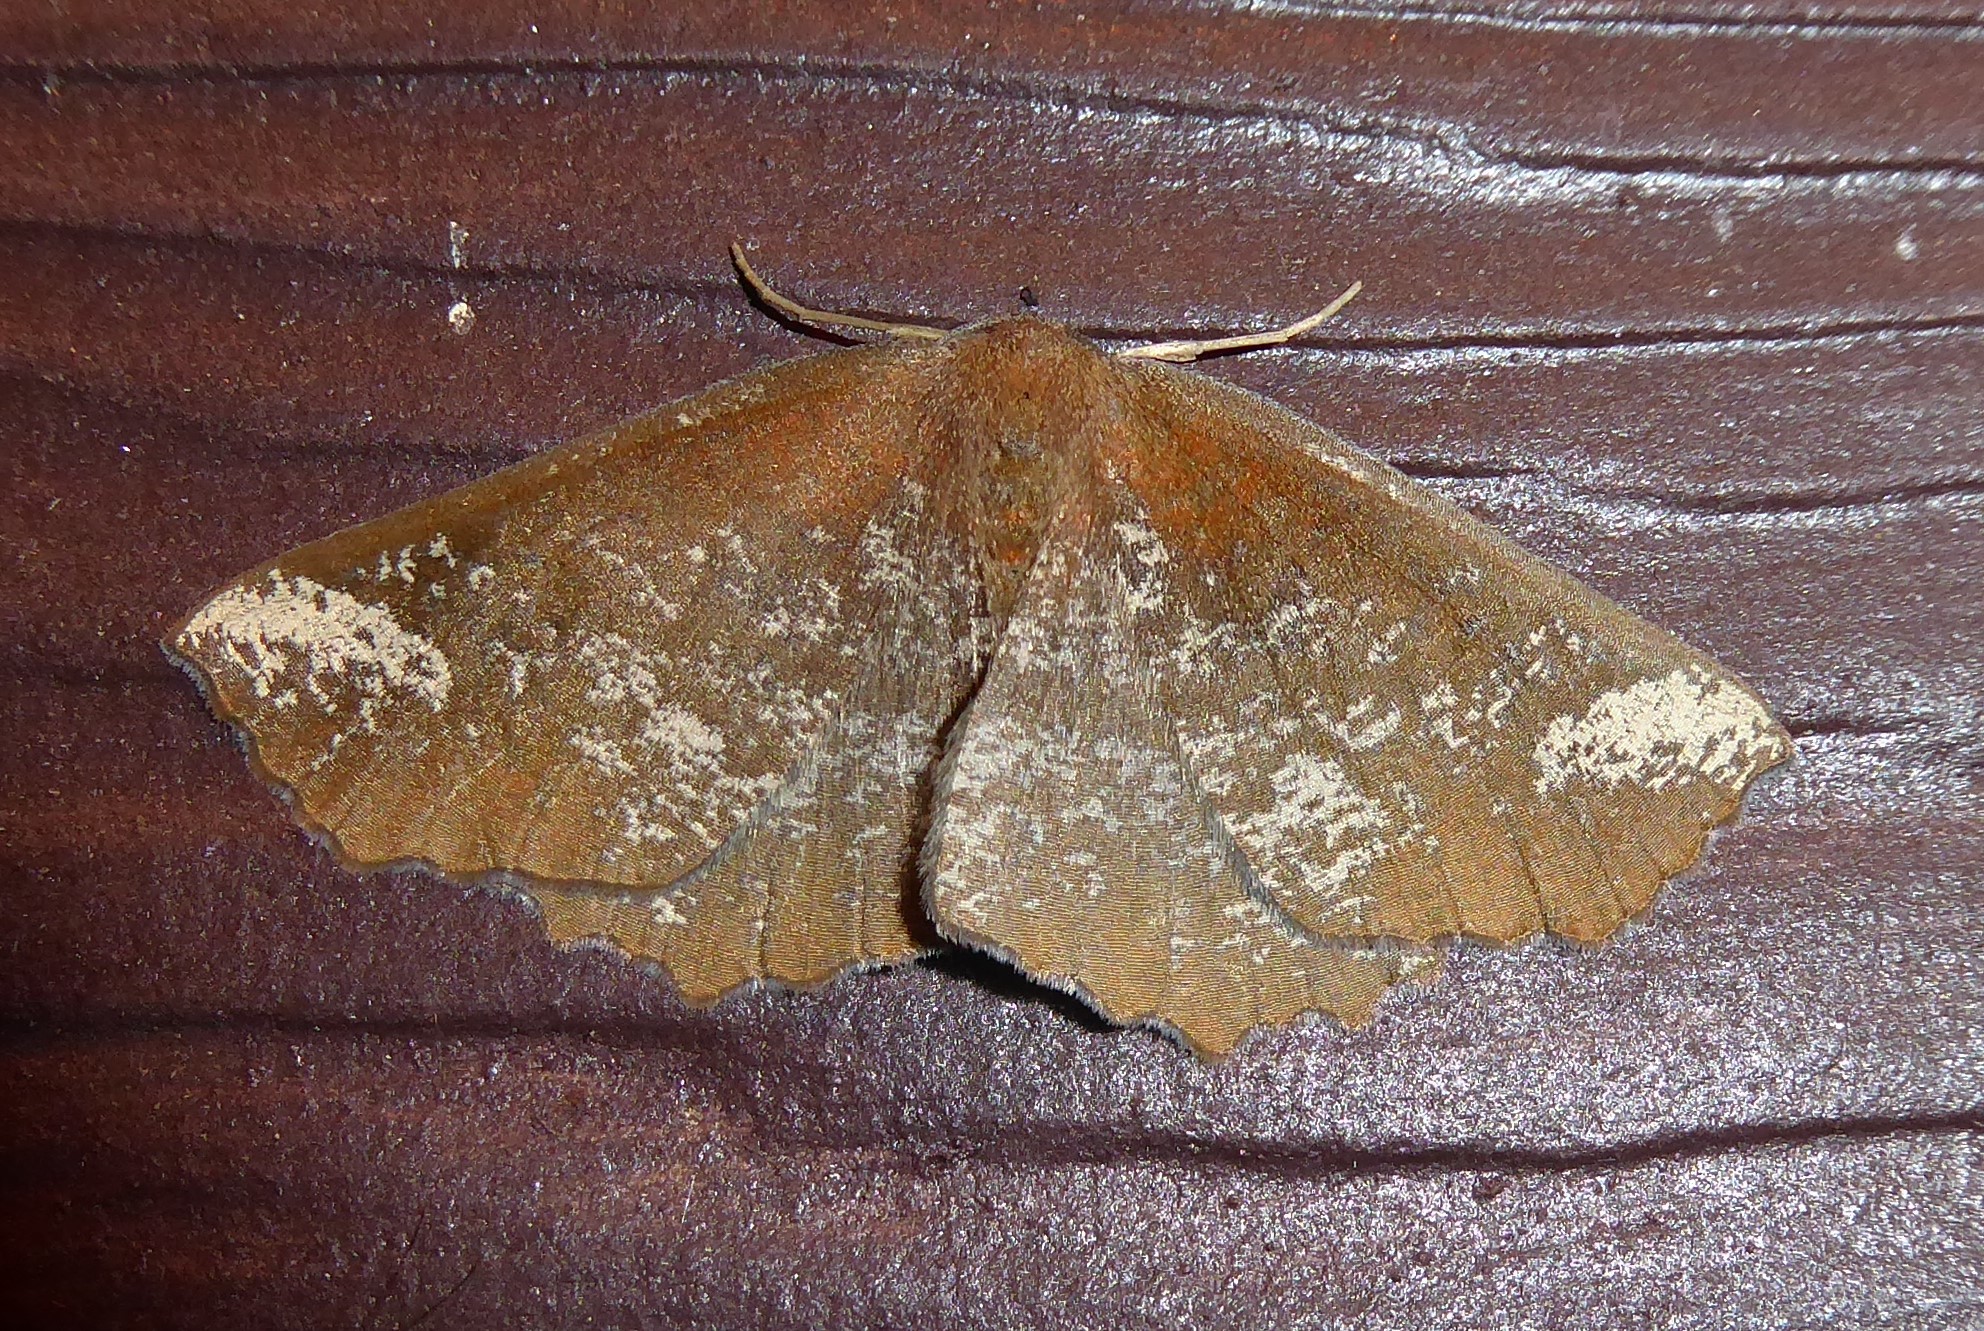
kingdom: Animalia
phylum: Arthropoda
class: Insecta
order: Lepidoptera
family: Geometridae
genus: Xyridacma
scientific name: Xyridacma ustaria
